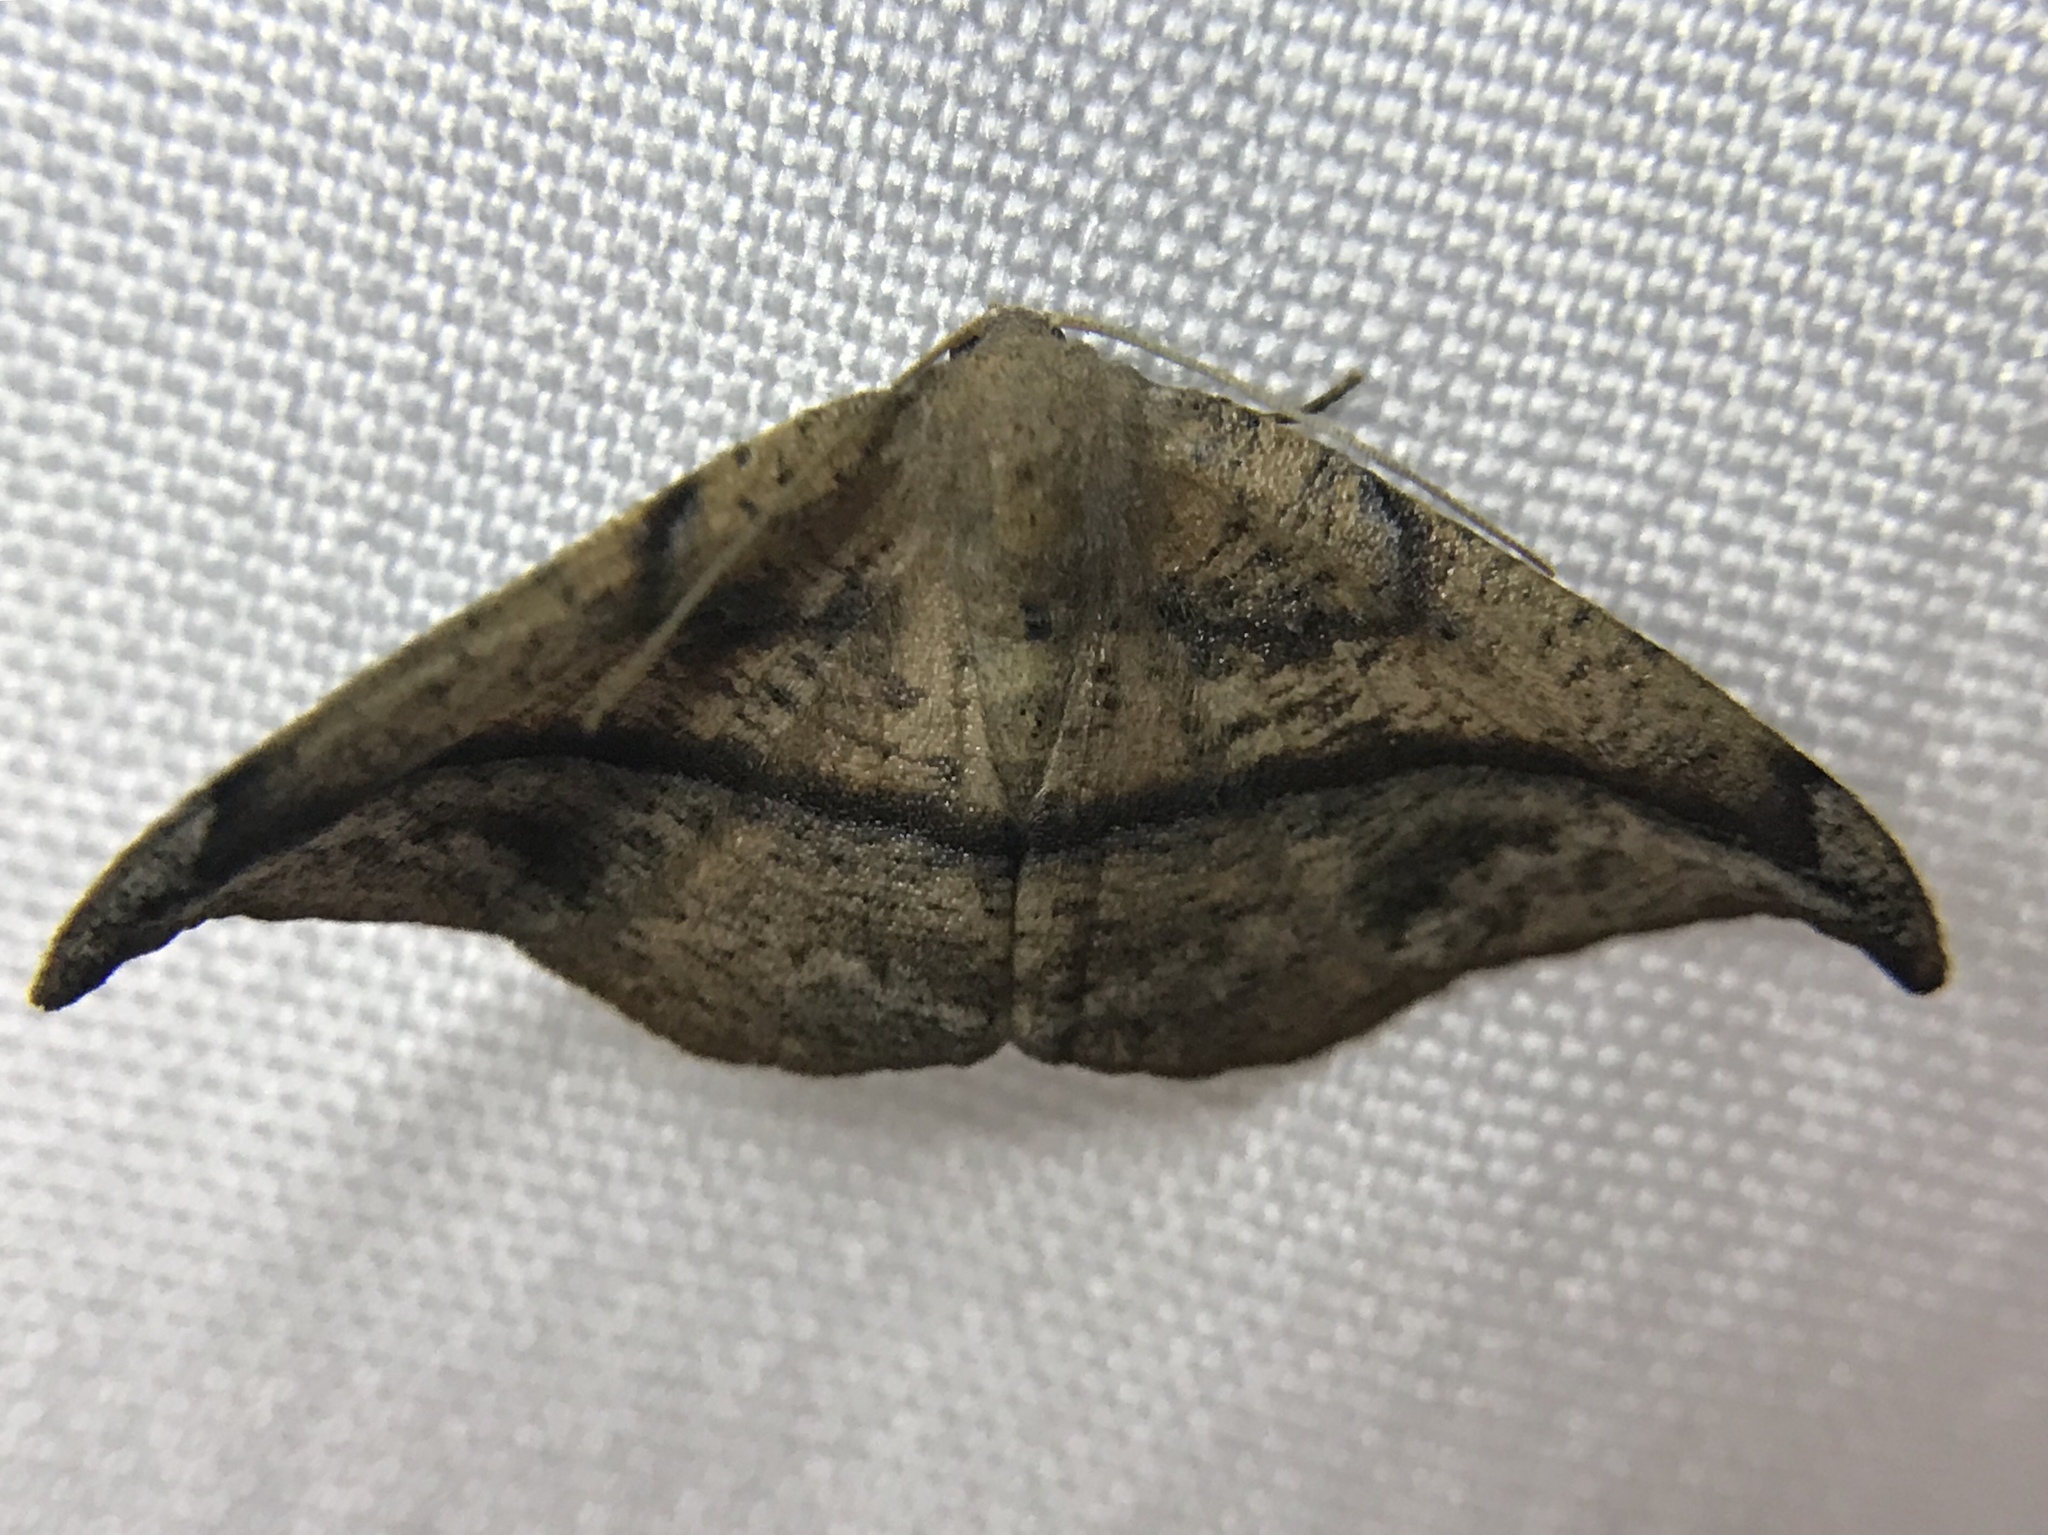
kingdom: Animalia
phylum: Arthropoda
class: Insecta
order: Lepidoptera
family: Geometridae
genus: Patalene
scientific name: Patalene olyzonaria
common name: Juniper geometer moth
